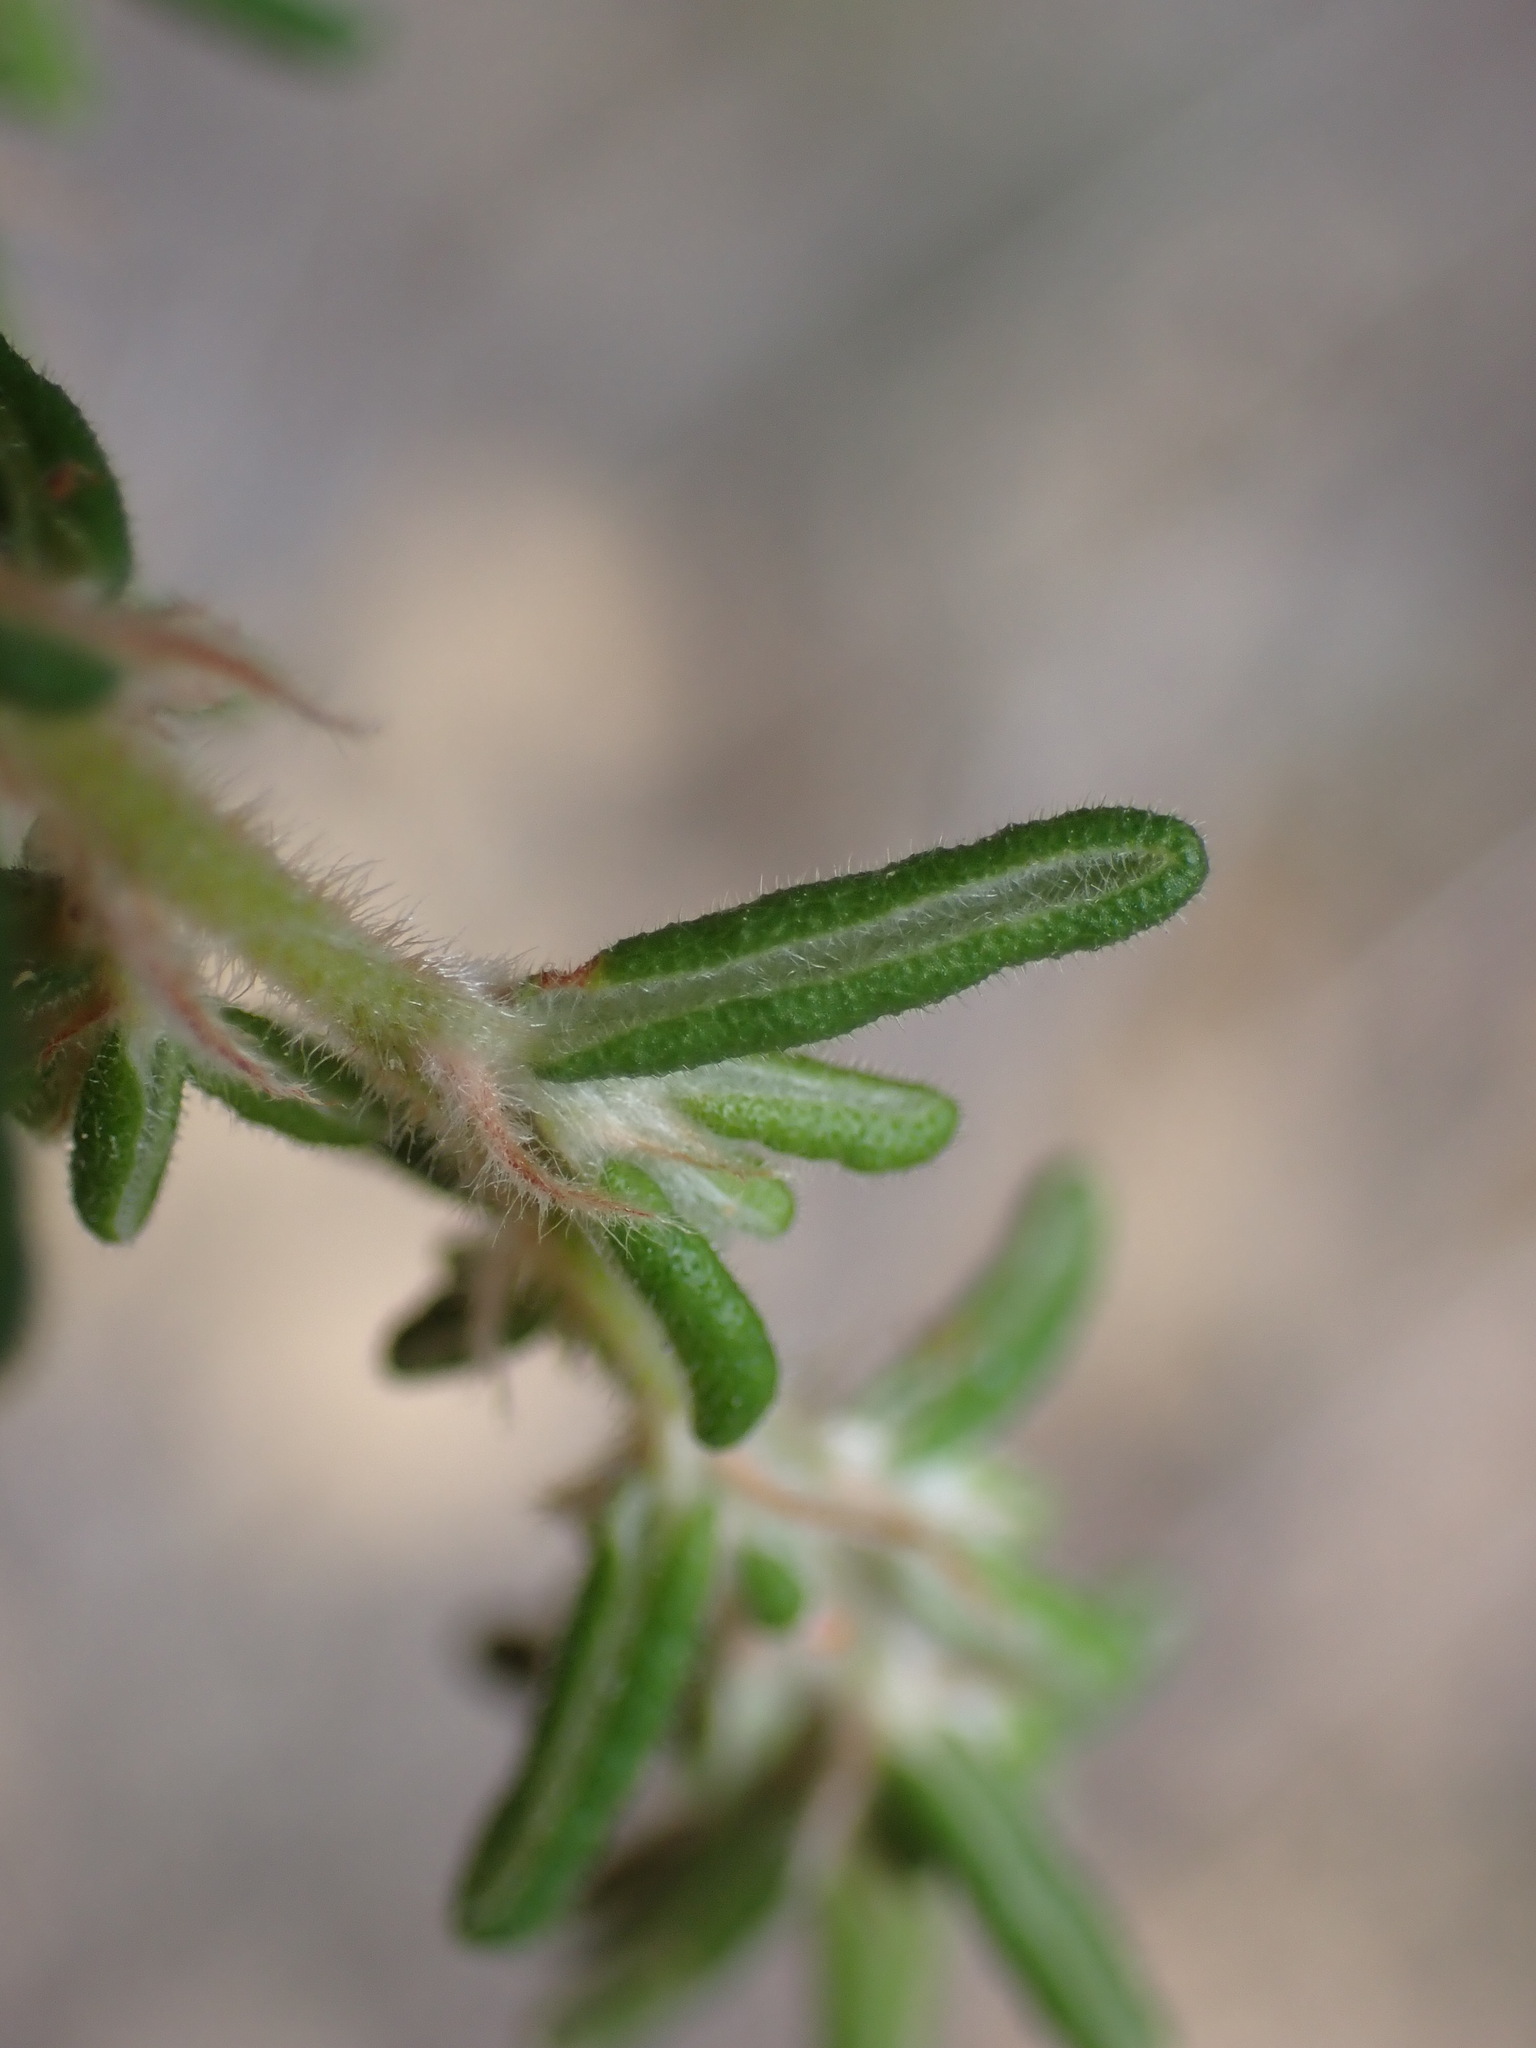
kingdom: Plantae
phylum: Tracheophyta
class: Magnoliopsida
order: Rosales
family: Rhamnaceae
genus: Pomaderris
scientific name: Pomaderris amoena
